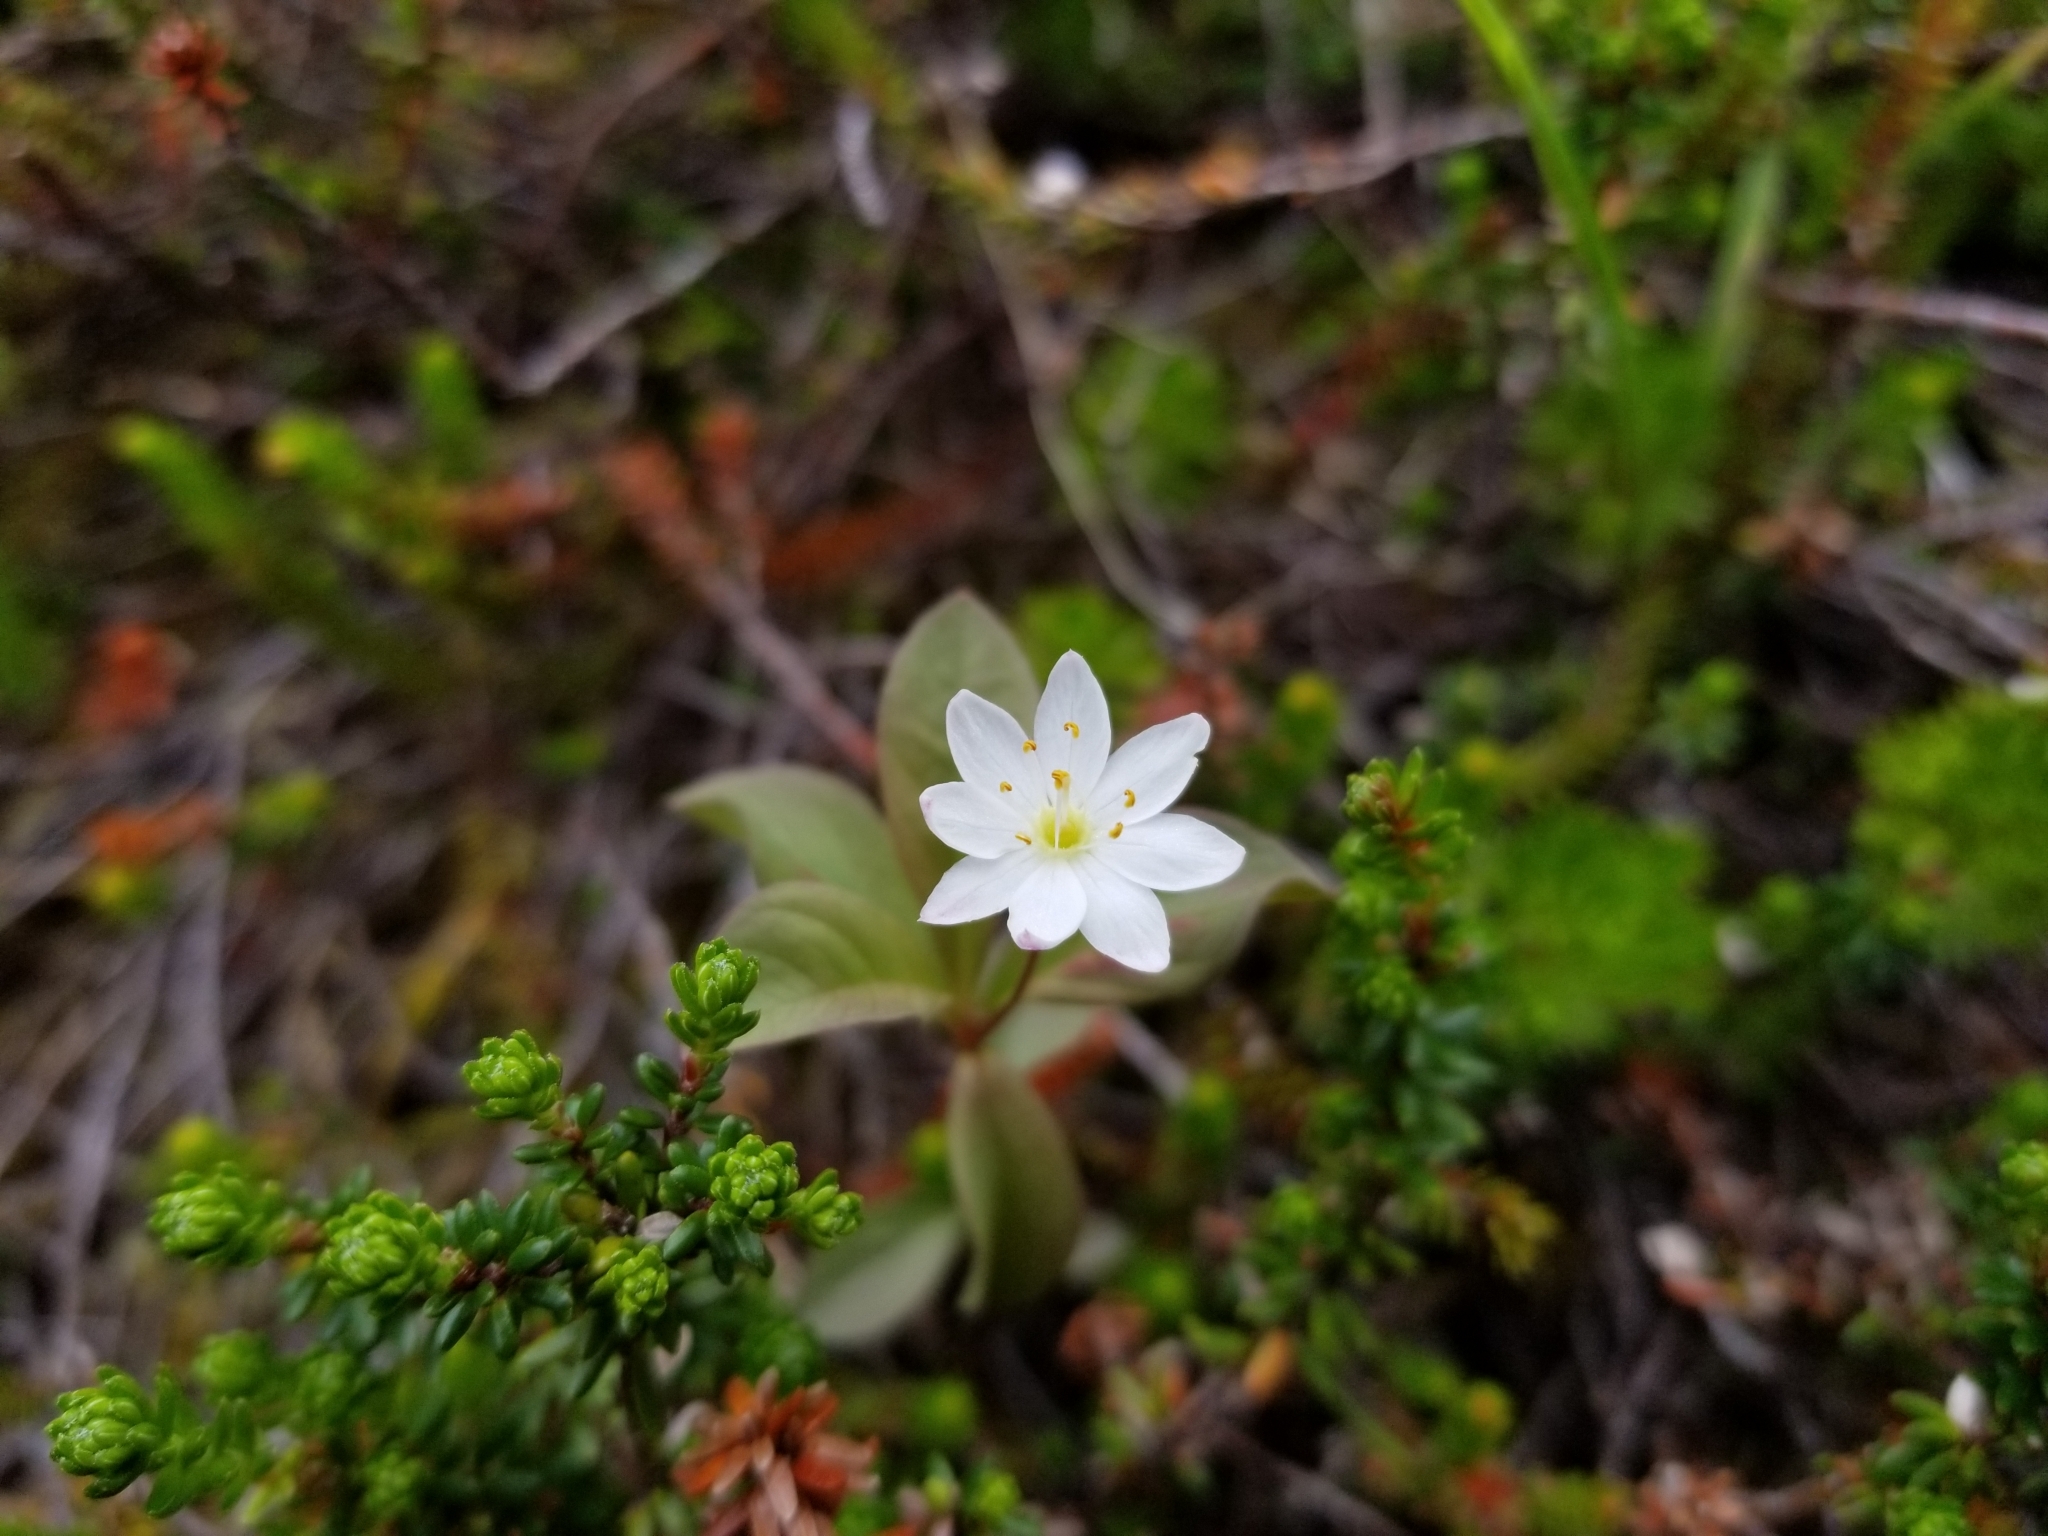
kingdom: Plantae
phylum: Tracheophyta
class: Magnoliopsida
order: Ericales
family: Primulaceae
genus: Lysimachia
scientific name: Lysimachia europaea
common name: Arctic starflower
